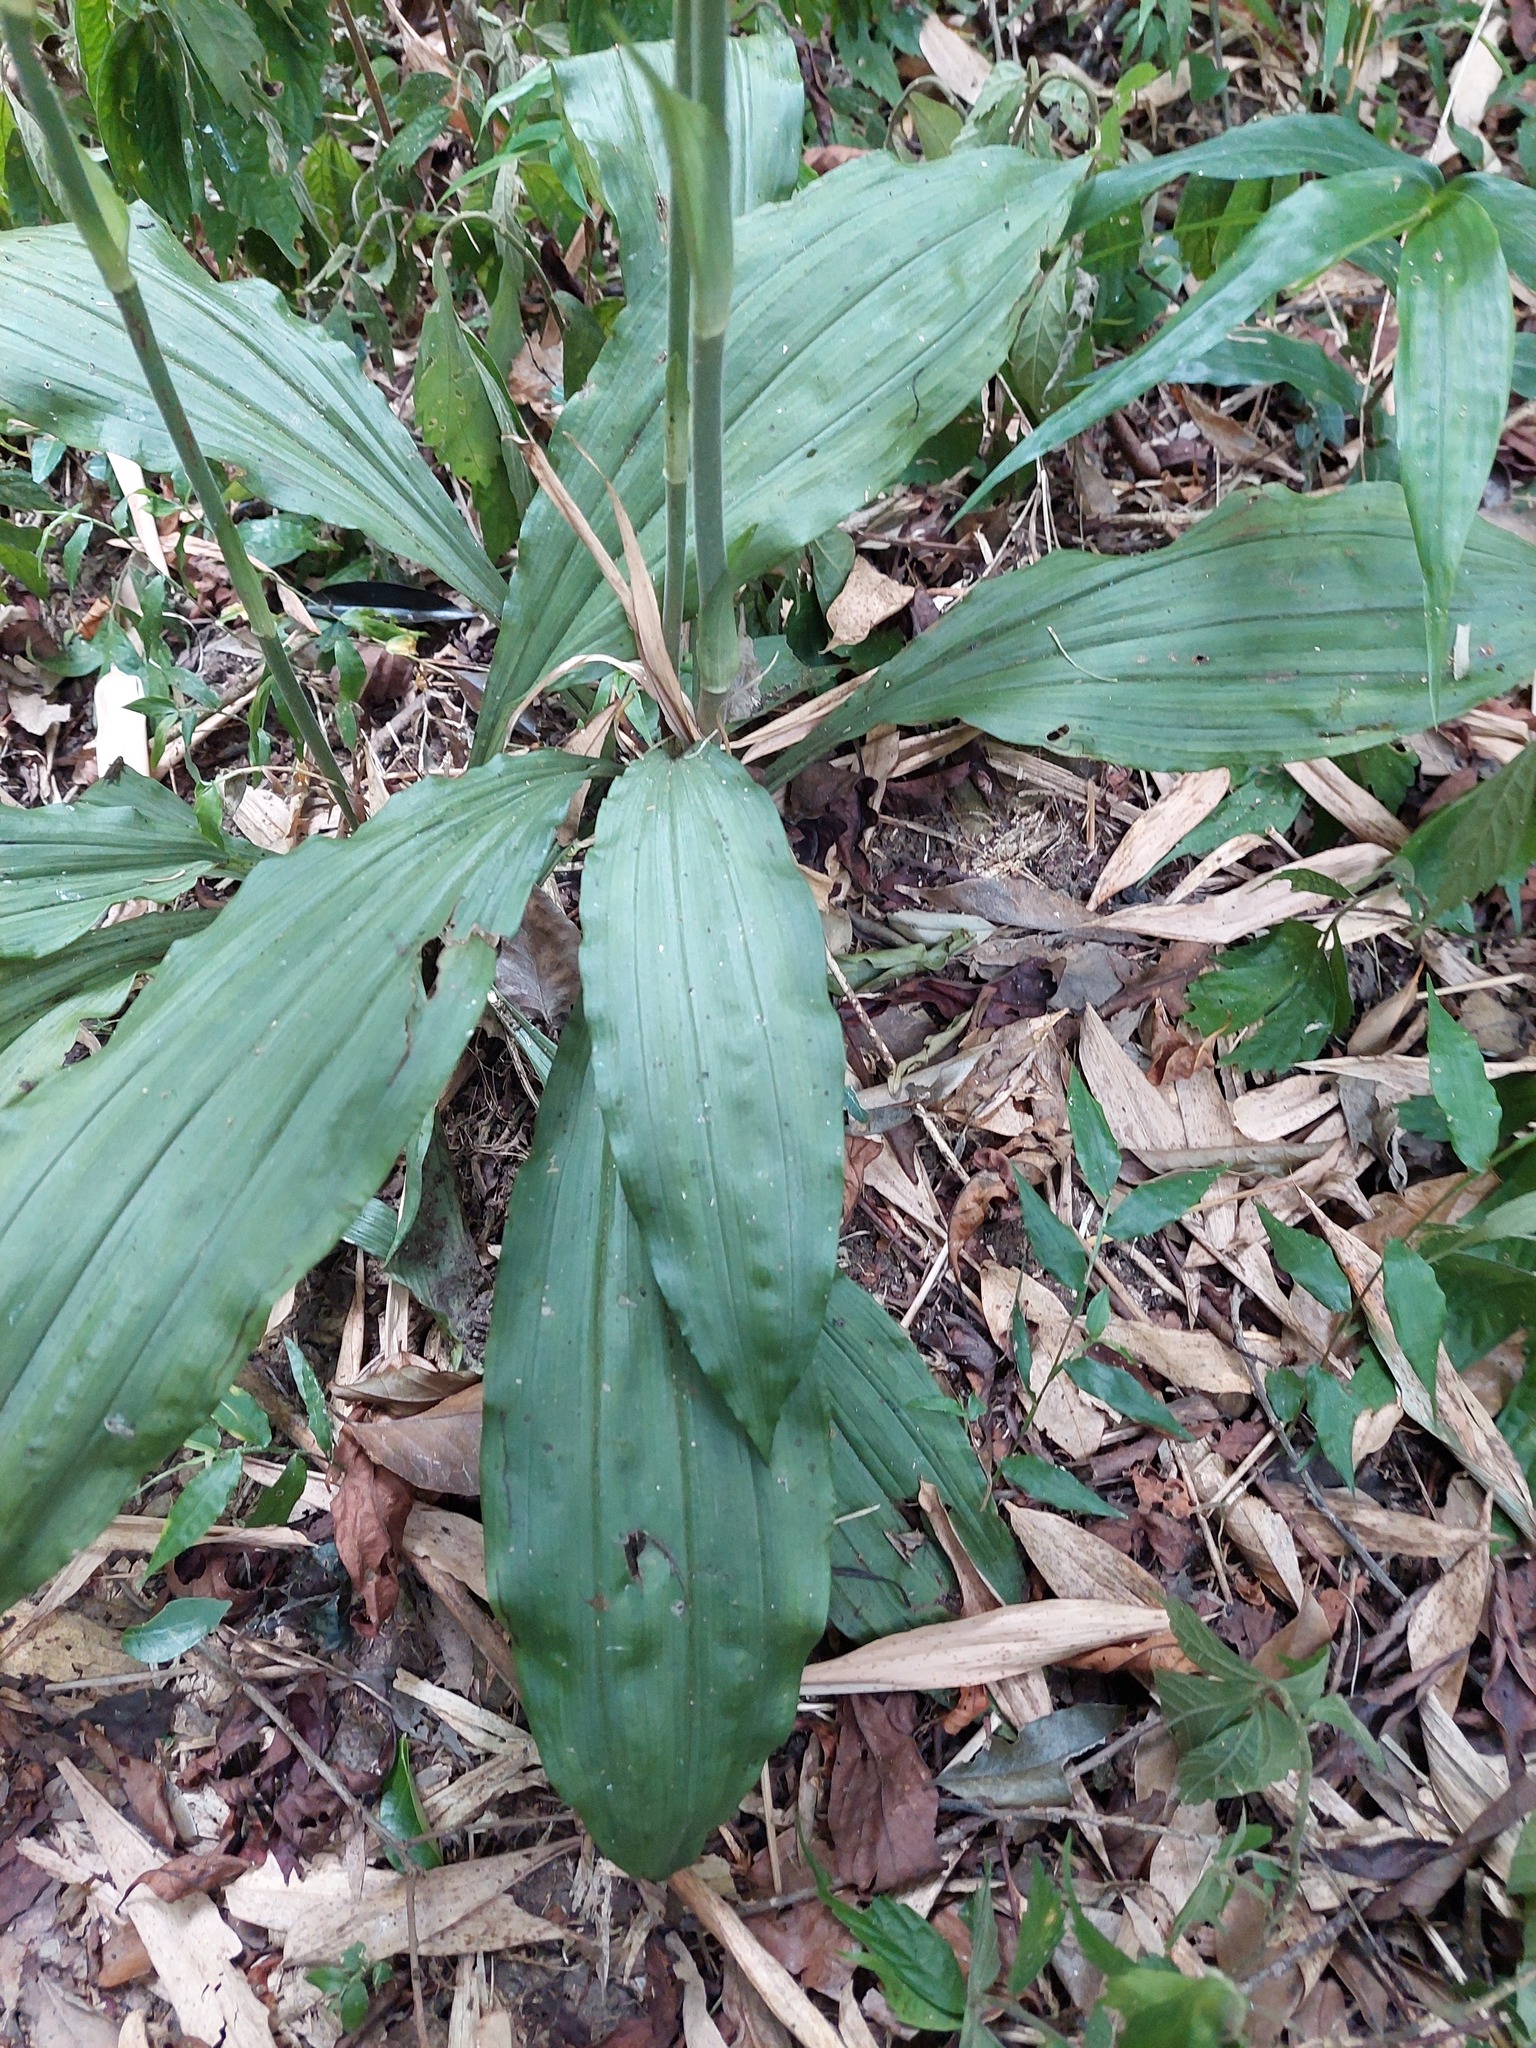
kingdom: Plantae
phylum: Tracheophyta
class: Liliopsida
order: Asparagales
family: Orchidaceae
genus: Calanthe
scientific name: Calanthe triplicata
